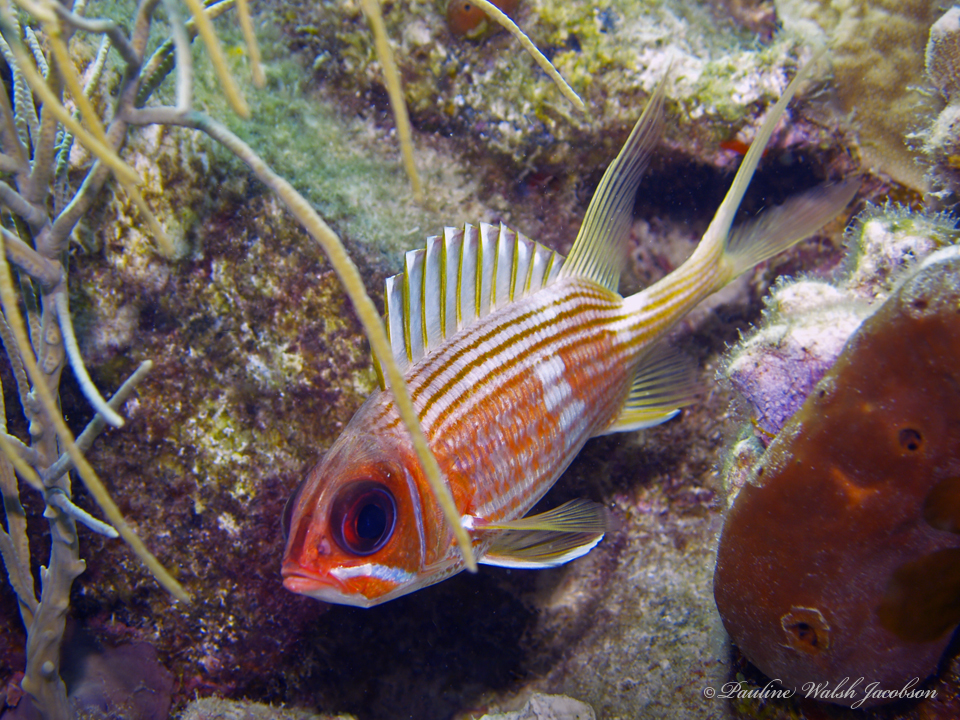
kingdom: Animalia
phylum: Chordata
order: Beryciformes
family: Holocentridae
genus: Holocentrus
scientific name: Holocentrus rufus
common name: Longspine squirrelfish
